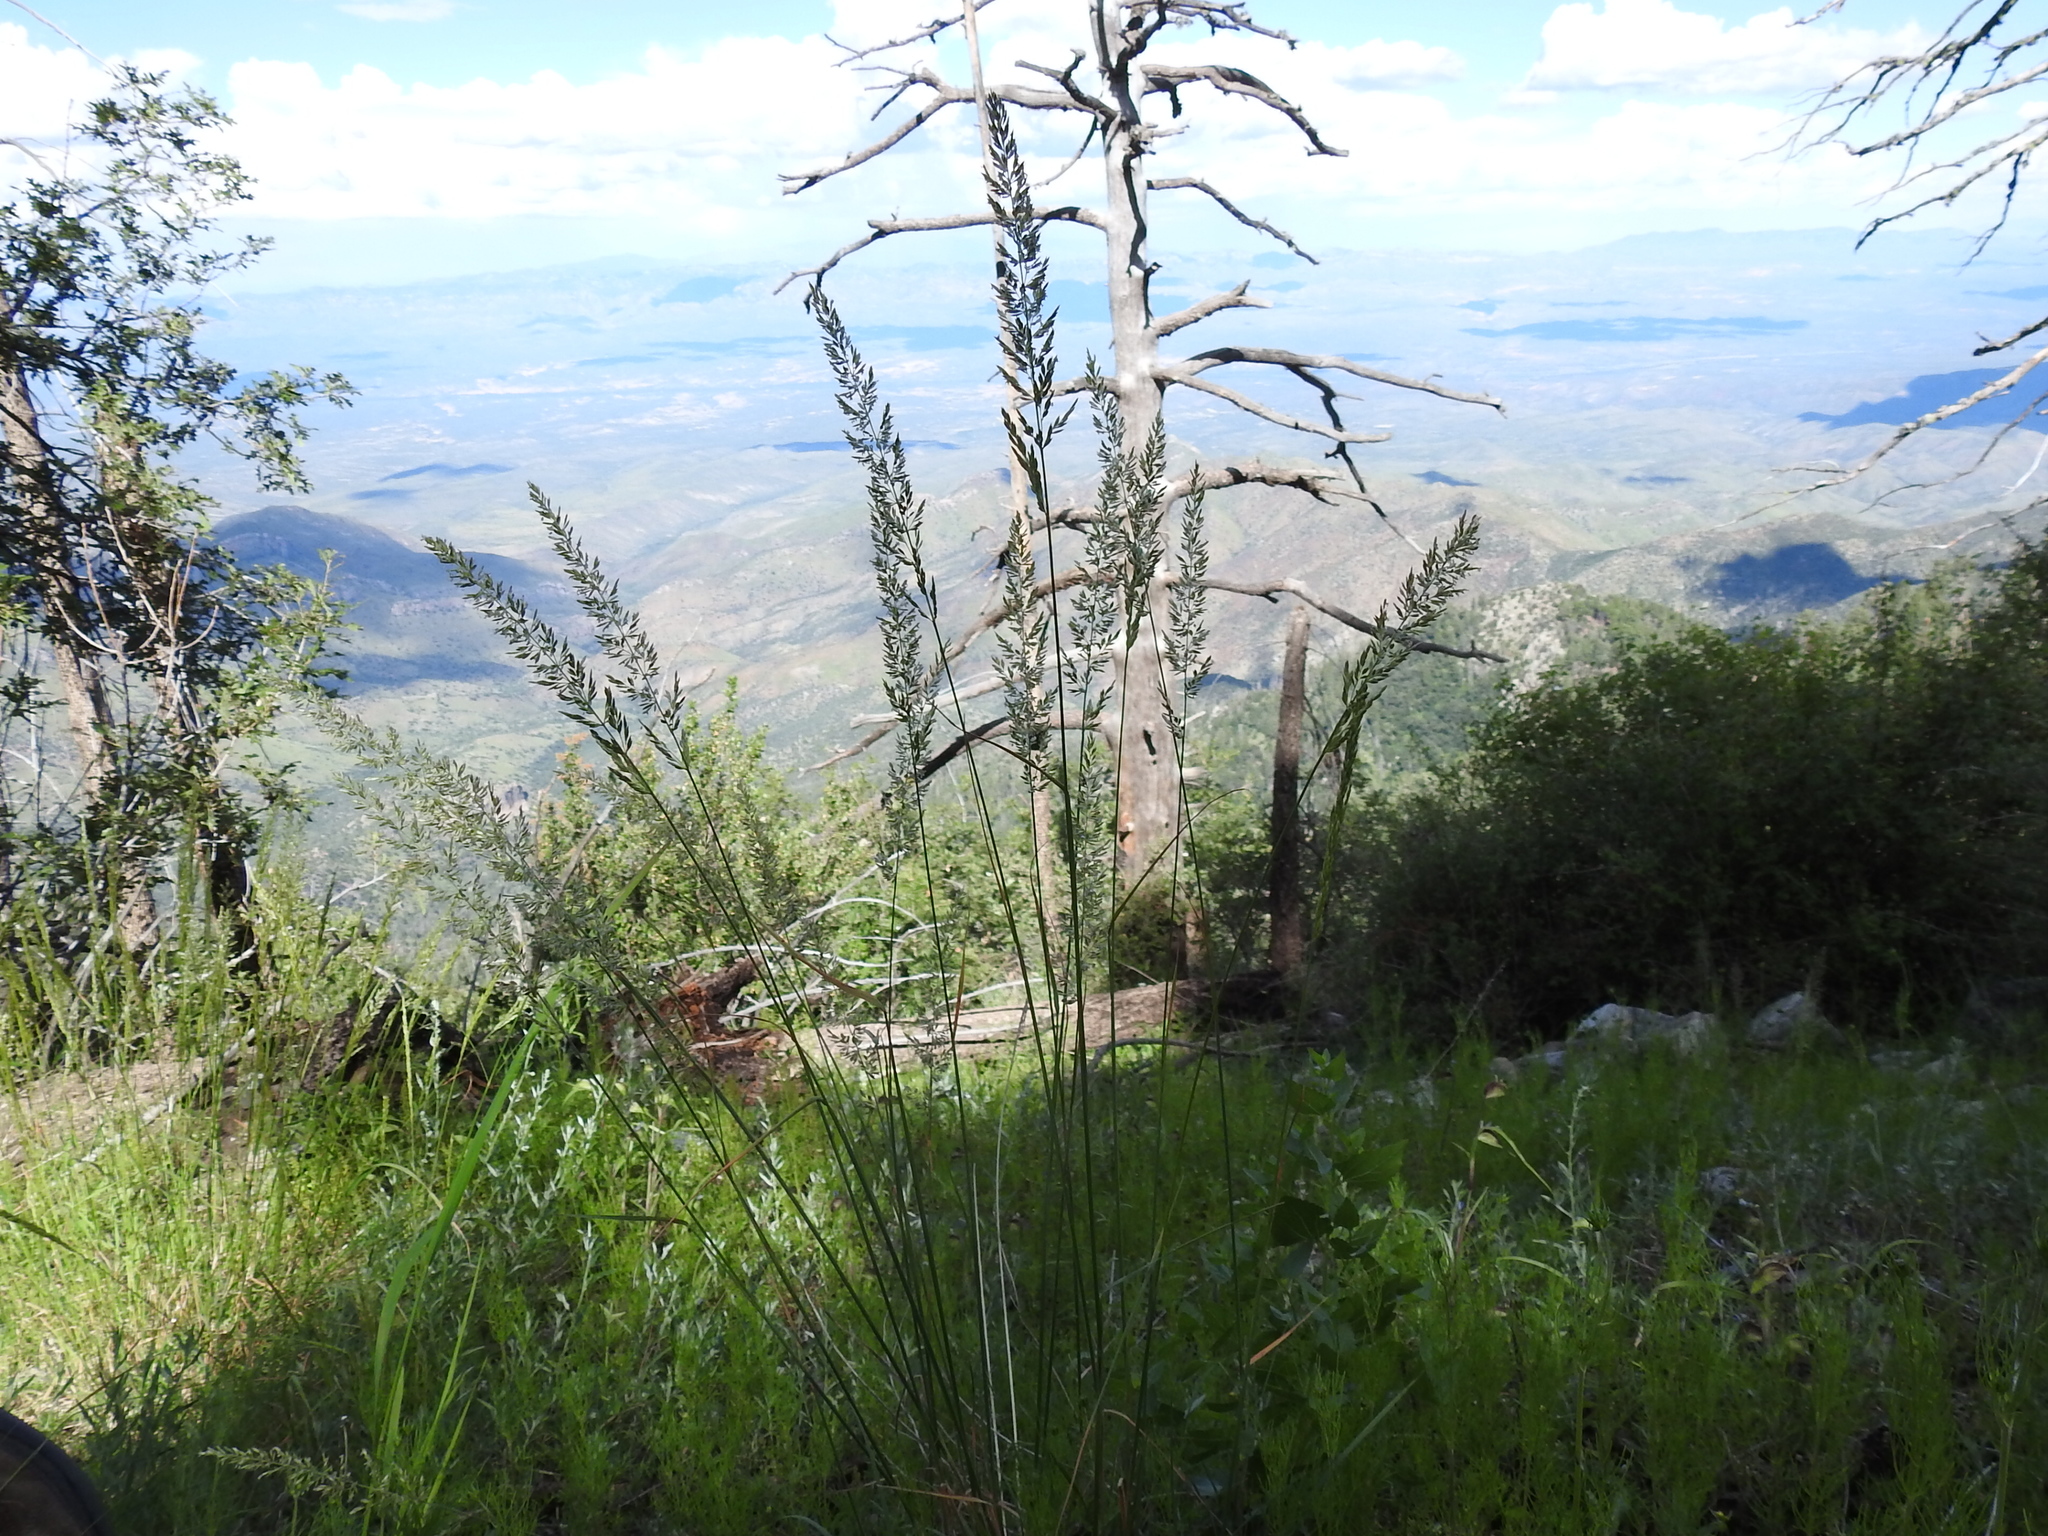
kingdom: Plantae
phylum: Tracheophyta
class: Liliopsida
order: Poales
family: Poaceae
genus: Koeleria
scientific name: Koeleria macrantha
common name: Crested hair-grass
